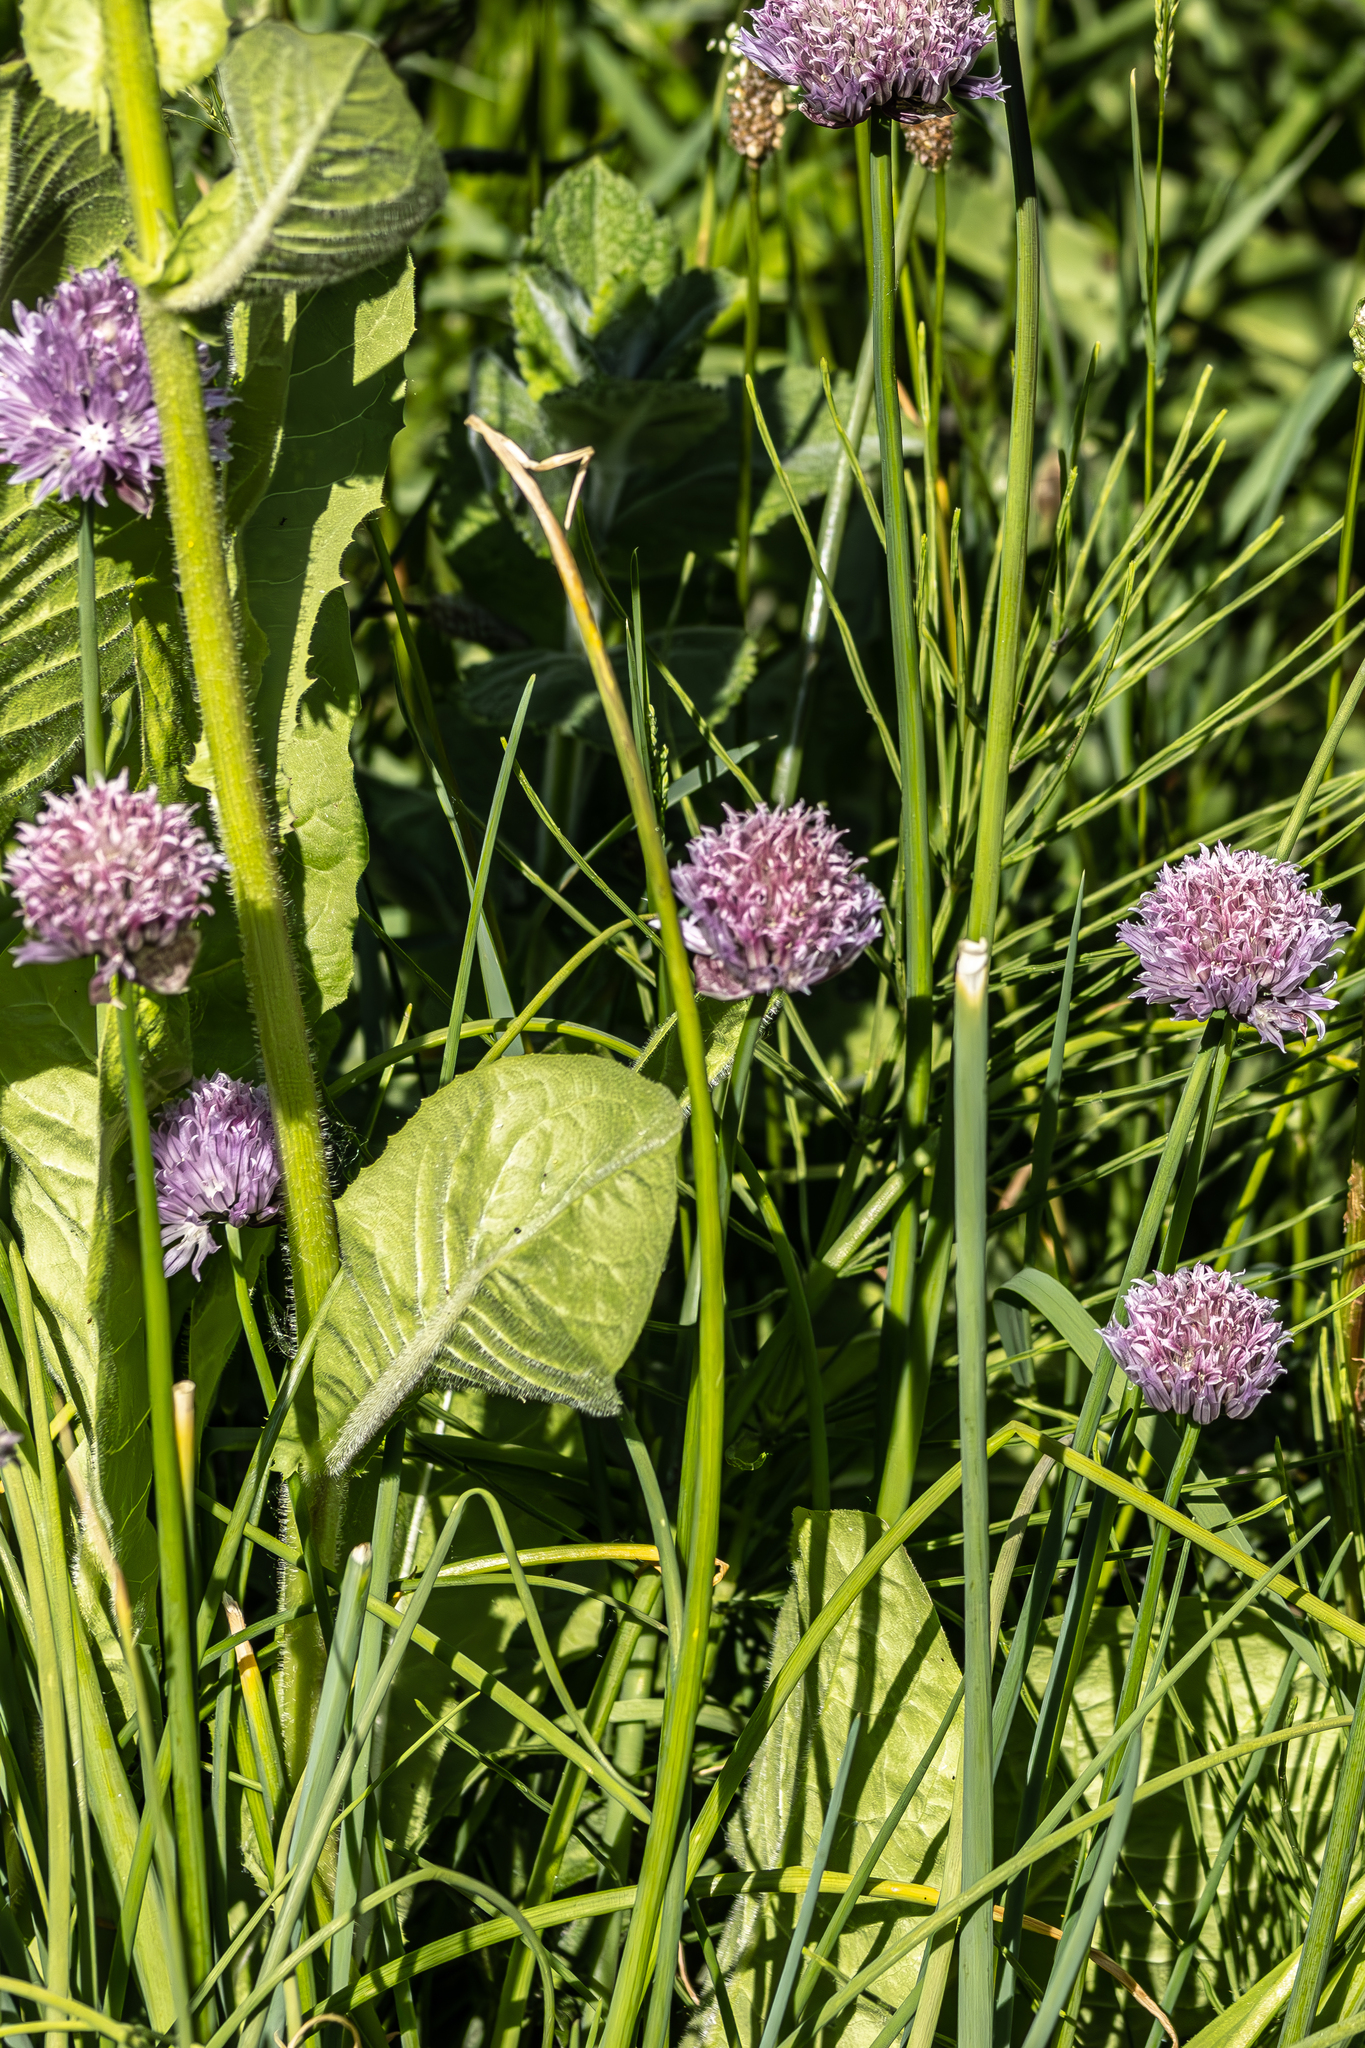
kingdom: Plantae
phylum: Tracheophyta
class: Liliopsida
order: Asparagales
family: Amaryllidaceae
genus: Allium
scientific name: Allium schoenoprasum
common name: Chives
